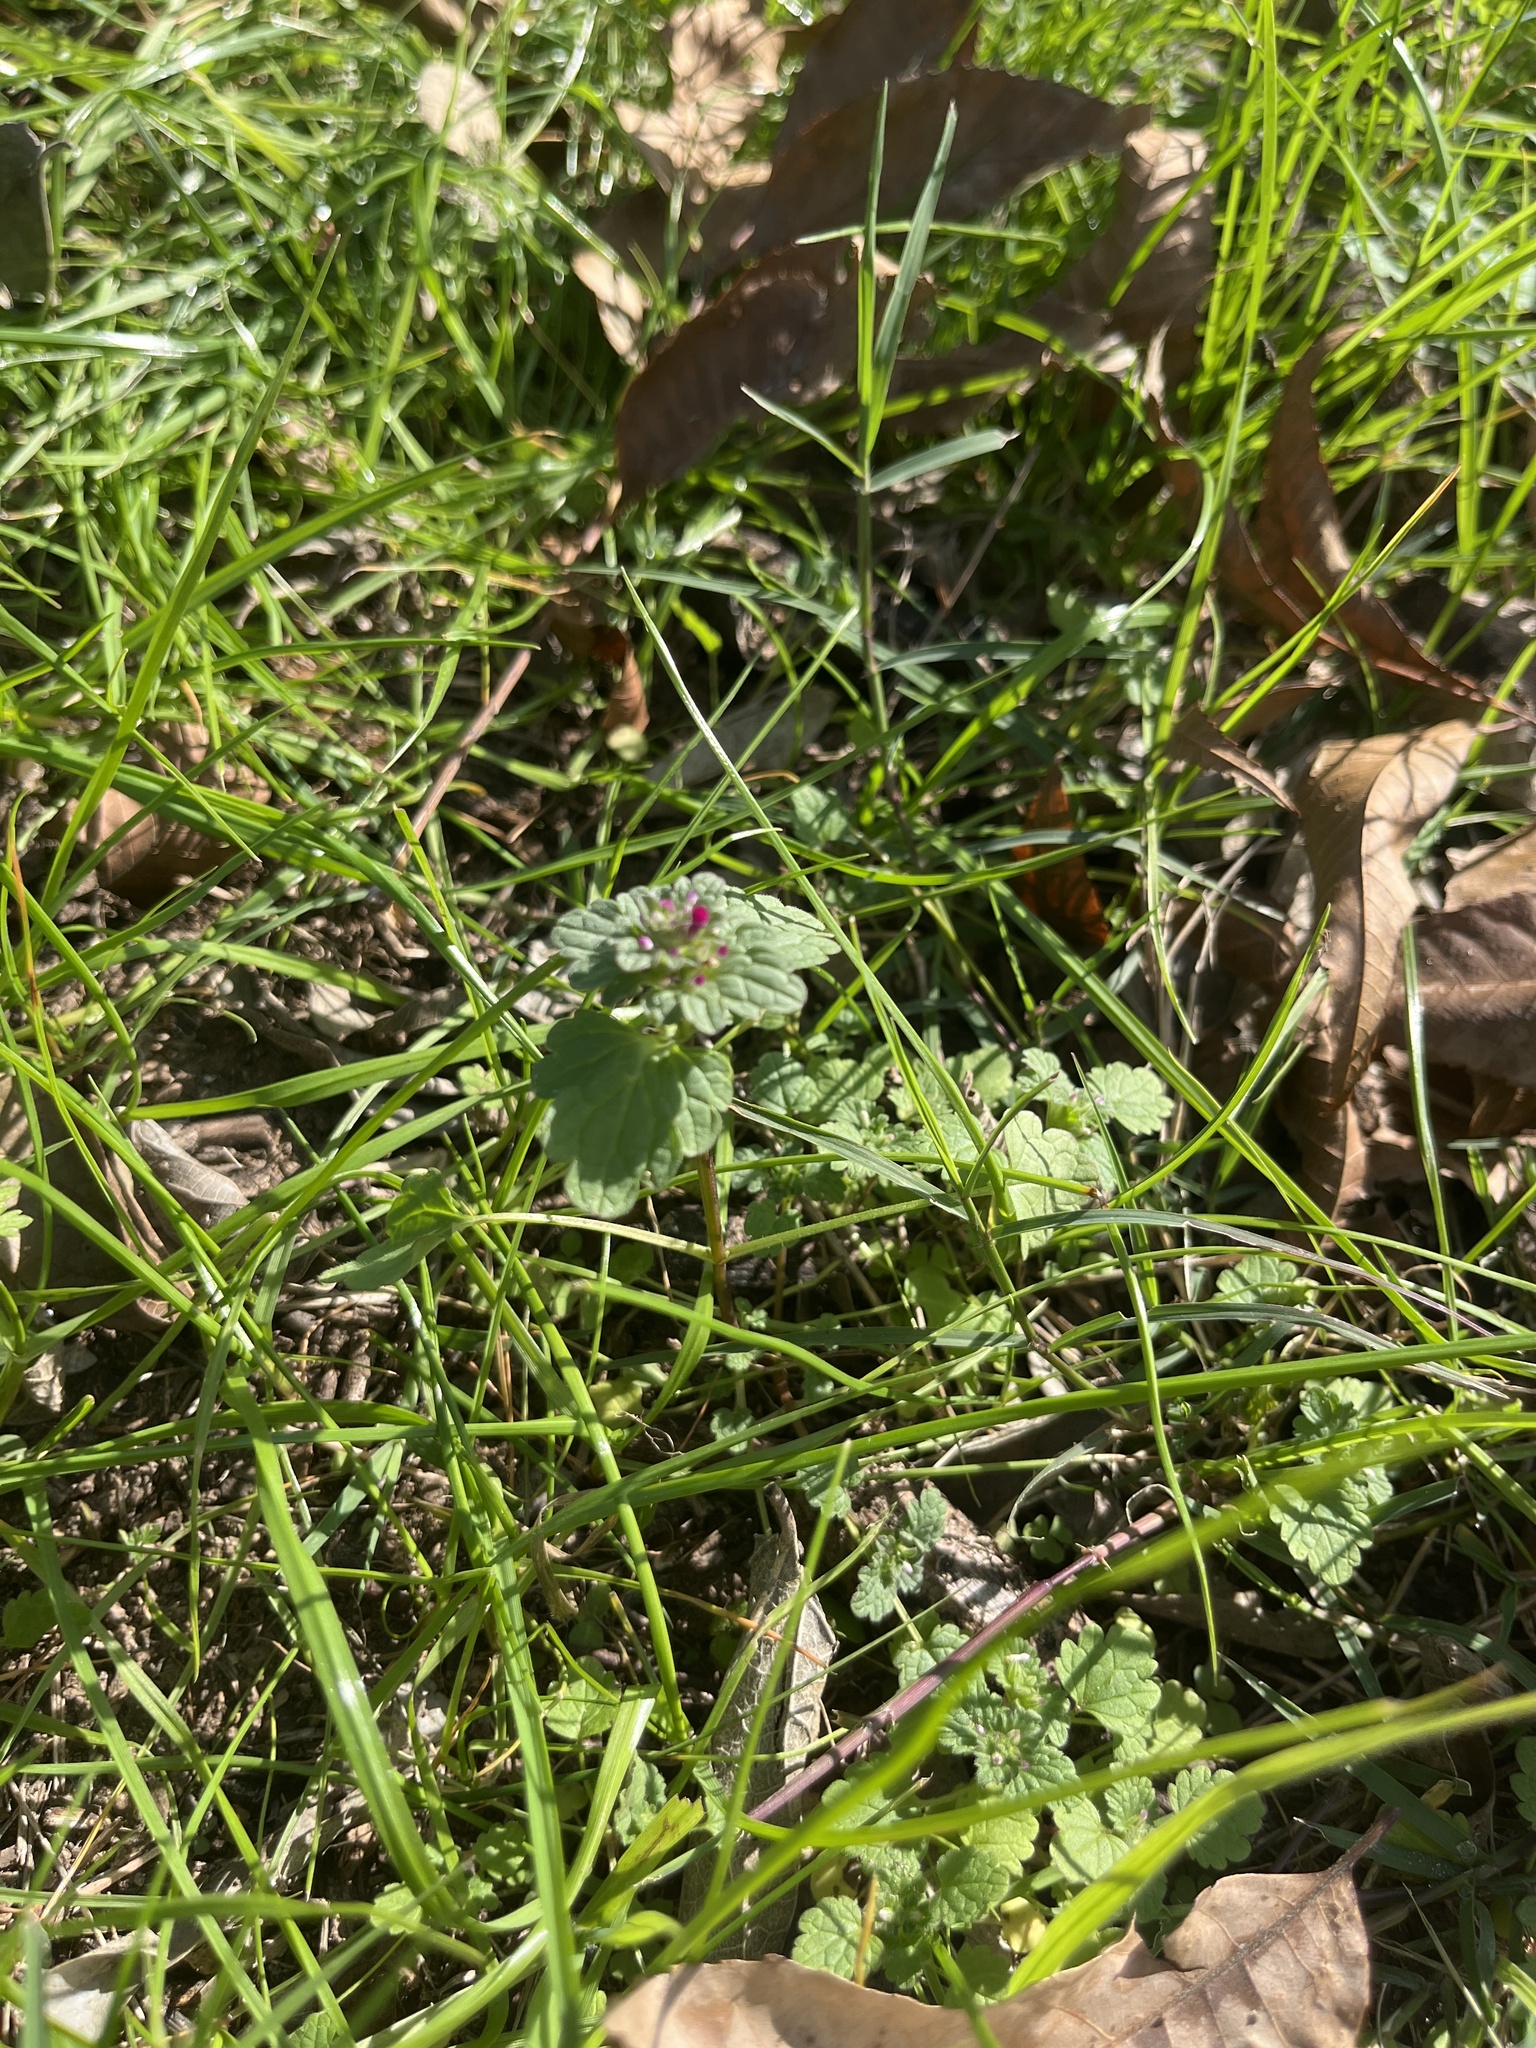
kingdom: Plantae
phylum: Tracheophyta
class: Magnoliopsida
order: Lamiales
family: Lamiaceae
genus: Lamium
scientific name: Lamium amplexicaule
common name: Henbit dead-nettle
